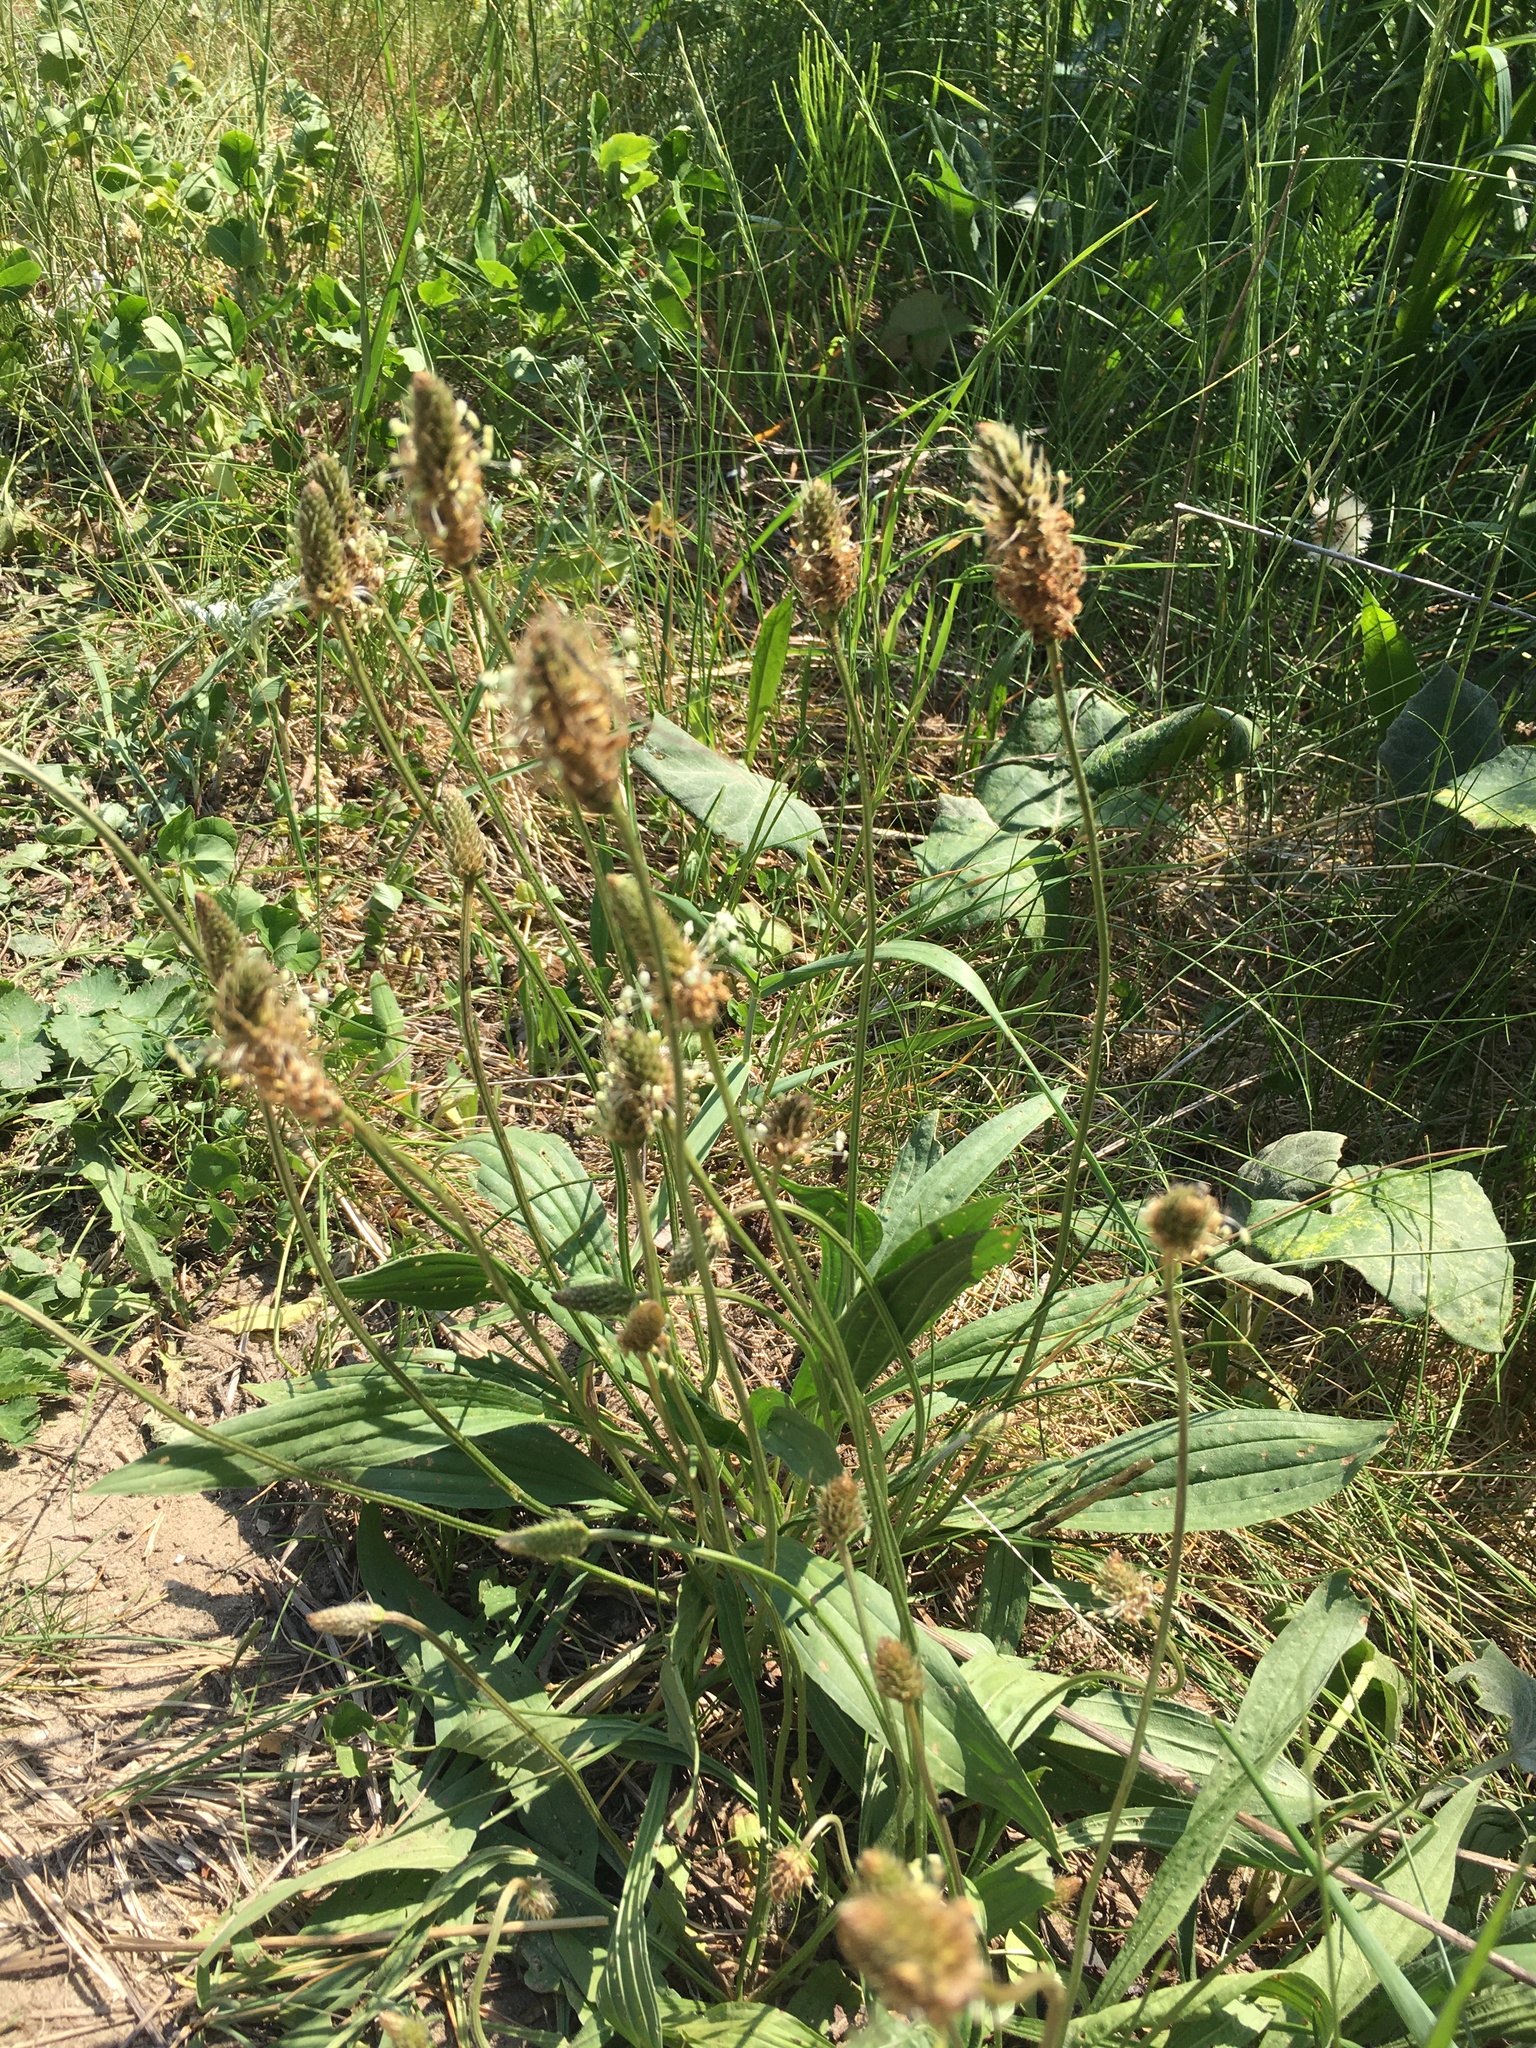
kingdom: Plantae
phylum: Tracheophyta
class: Magnoliopsida
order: Lamiales
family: Plantaginaceae
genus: Plantago
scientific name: Plantago lanceolata
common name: Ribwort plantain
